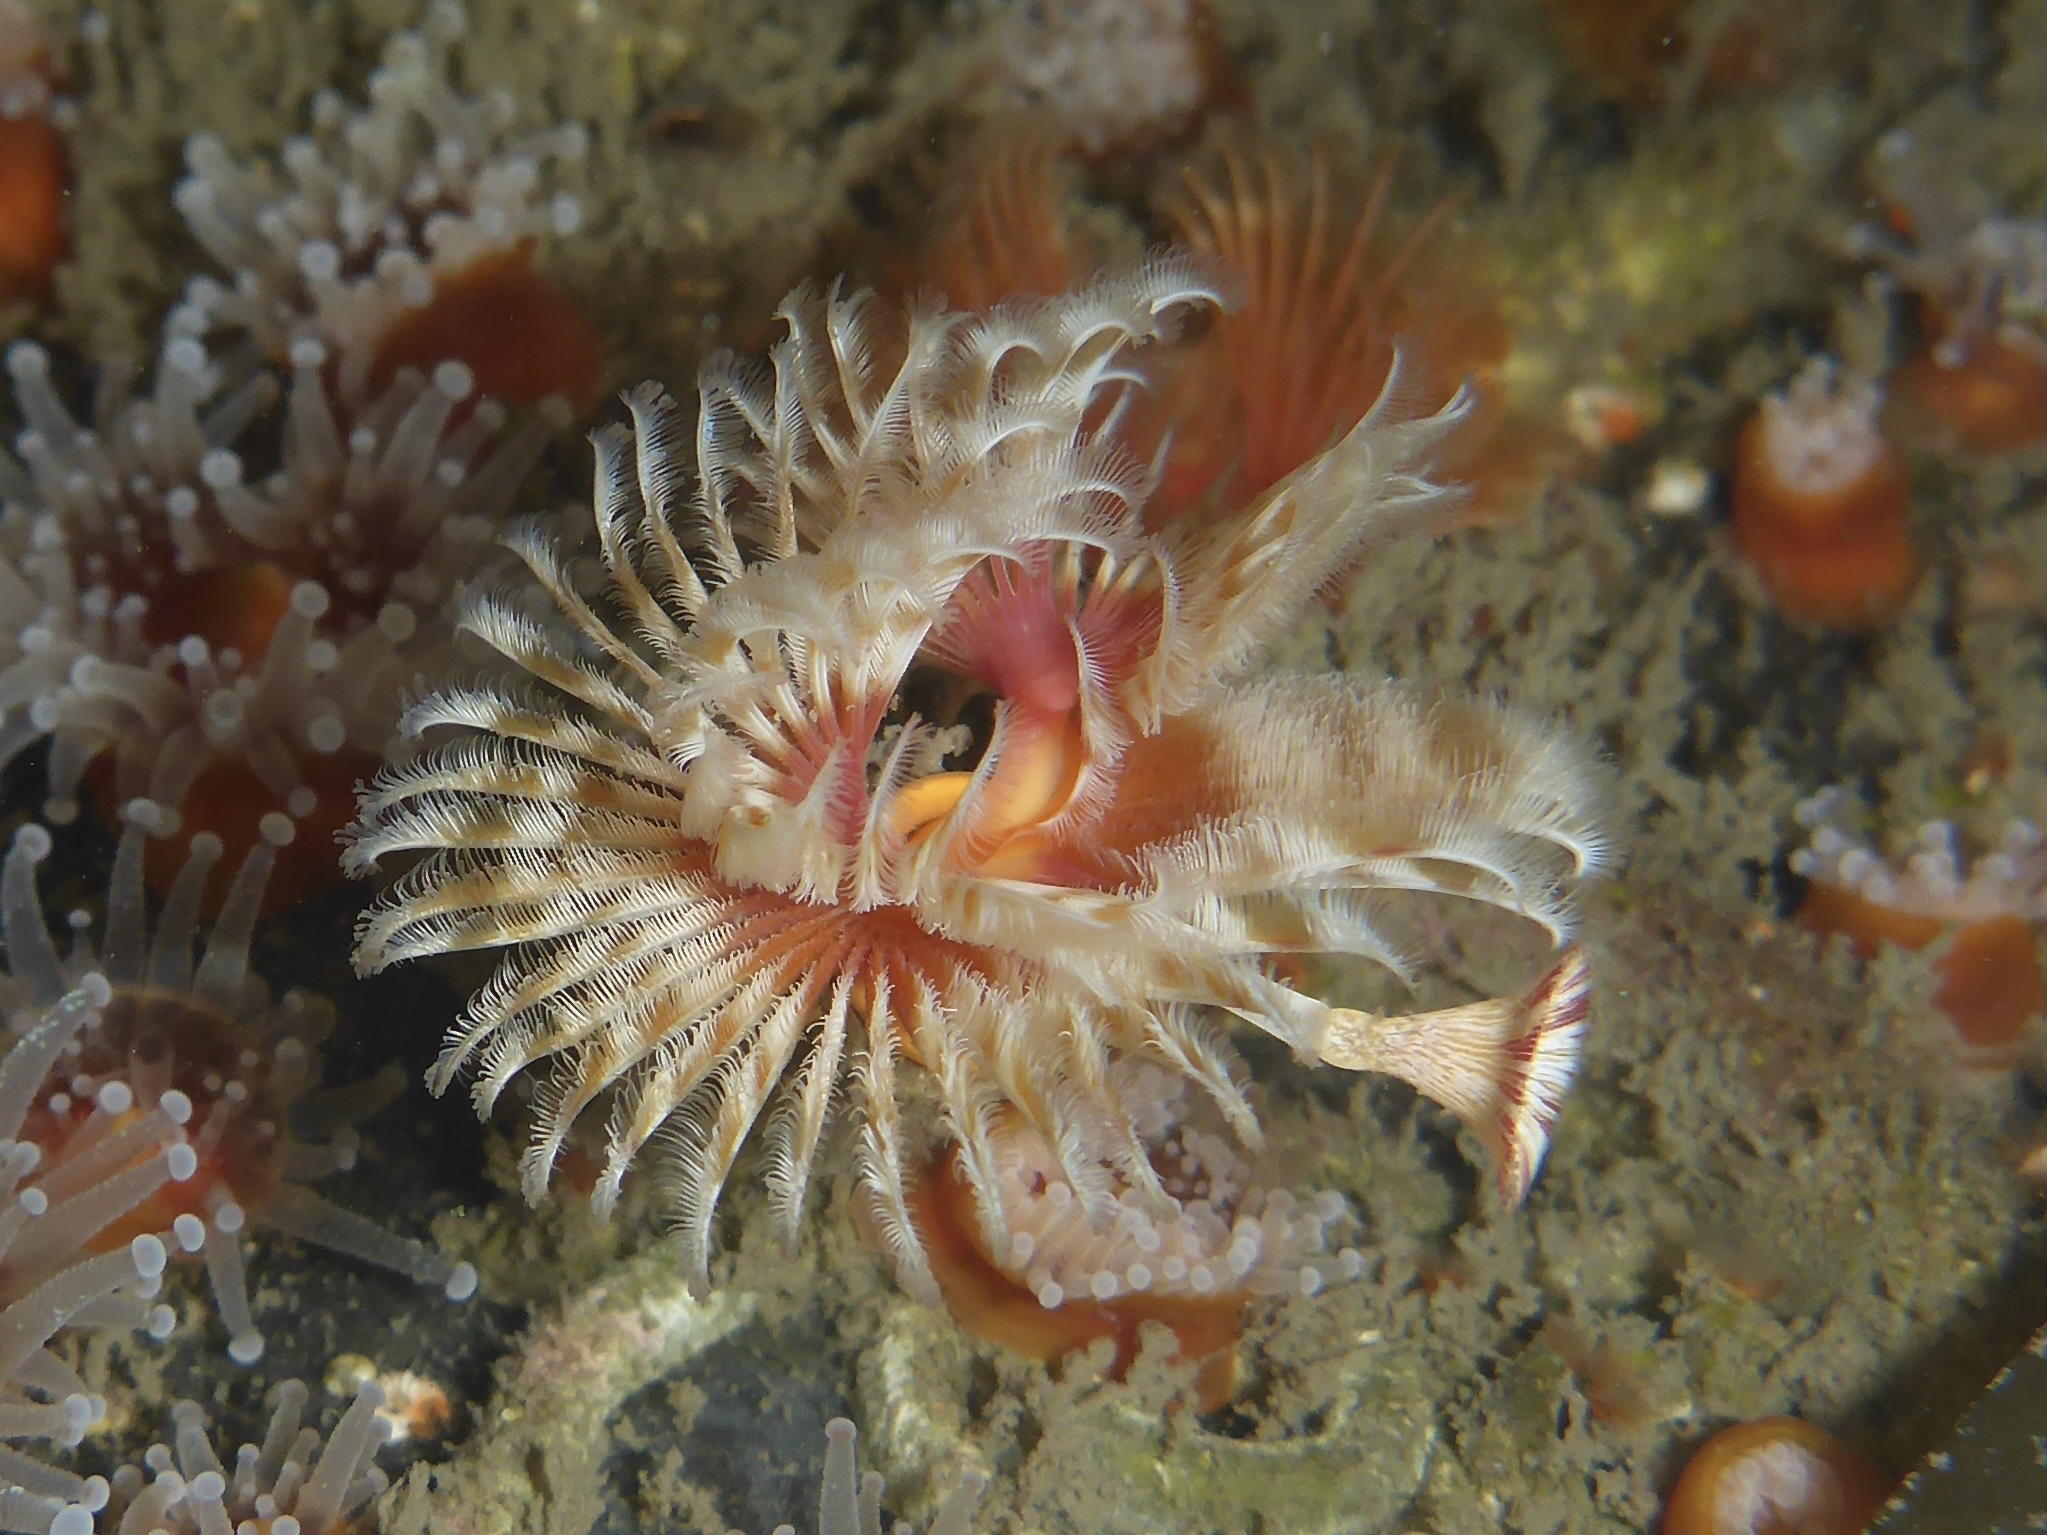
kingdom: Animalia
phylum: Annelida
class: Polychaeta
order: Sabellida
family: Serpulidae
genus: Serpula
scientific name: Serpula columbiana
